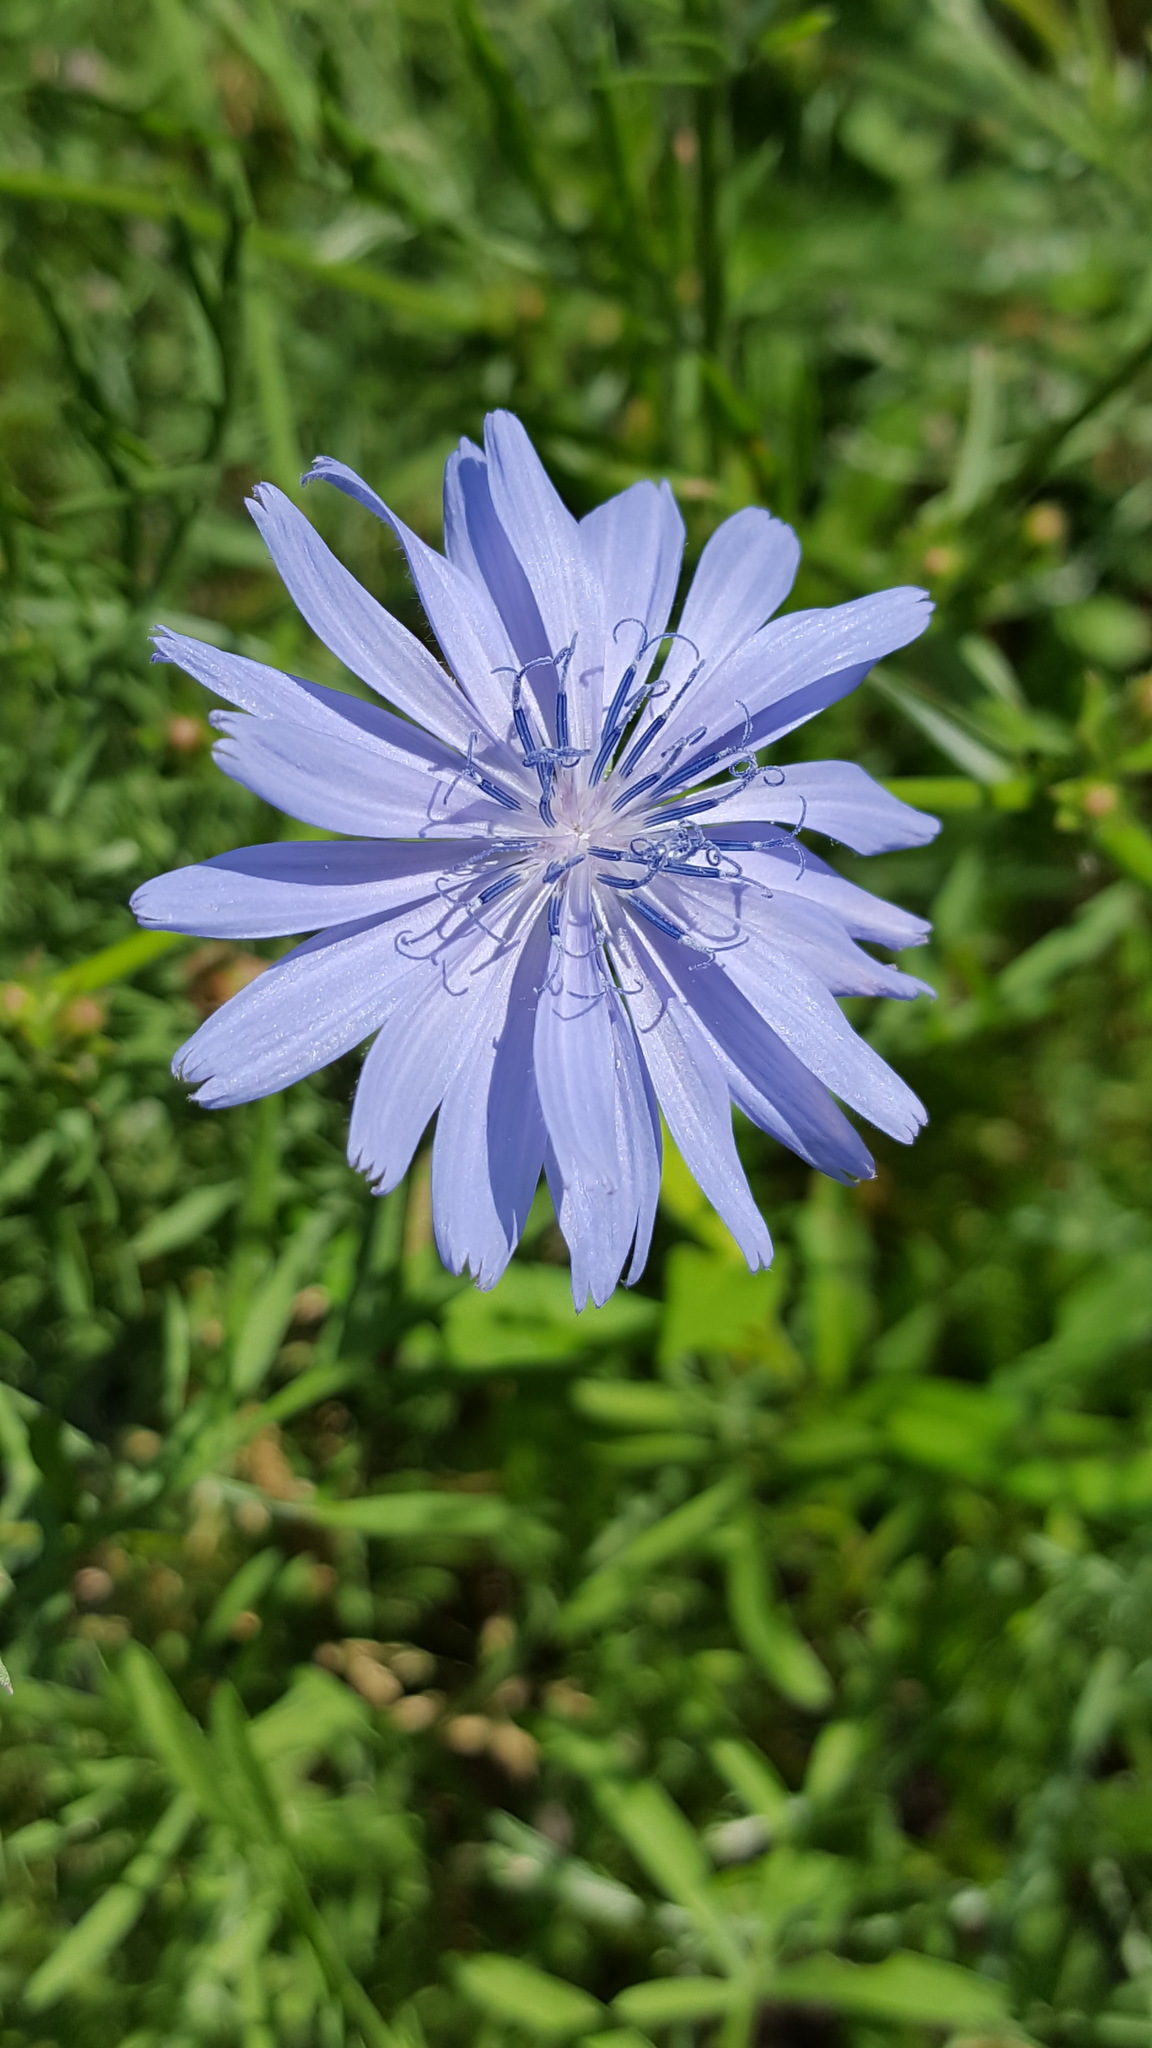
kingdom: Plantae
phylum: Tracheophyta
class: Magnoliopsida
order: Asterales
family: Asteraceae
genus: Cichorium
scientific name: Cichorium intybus
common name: Chicory
